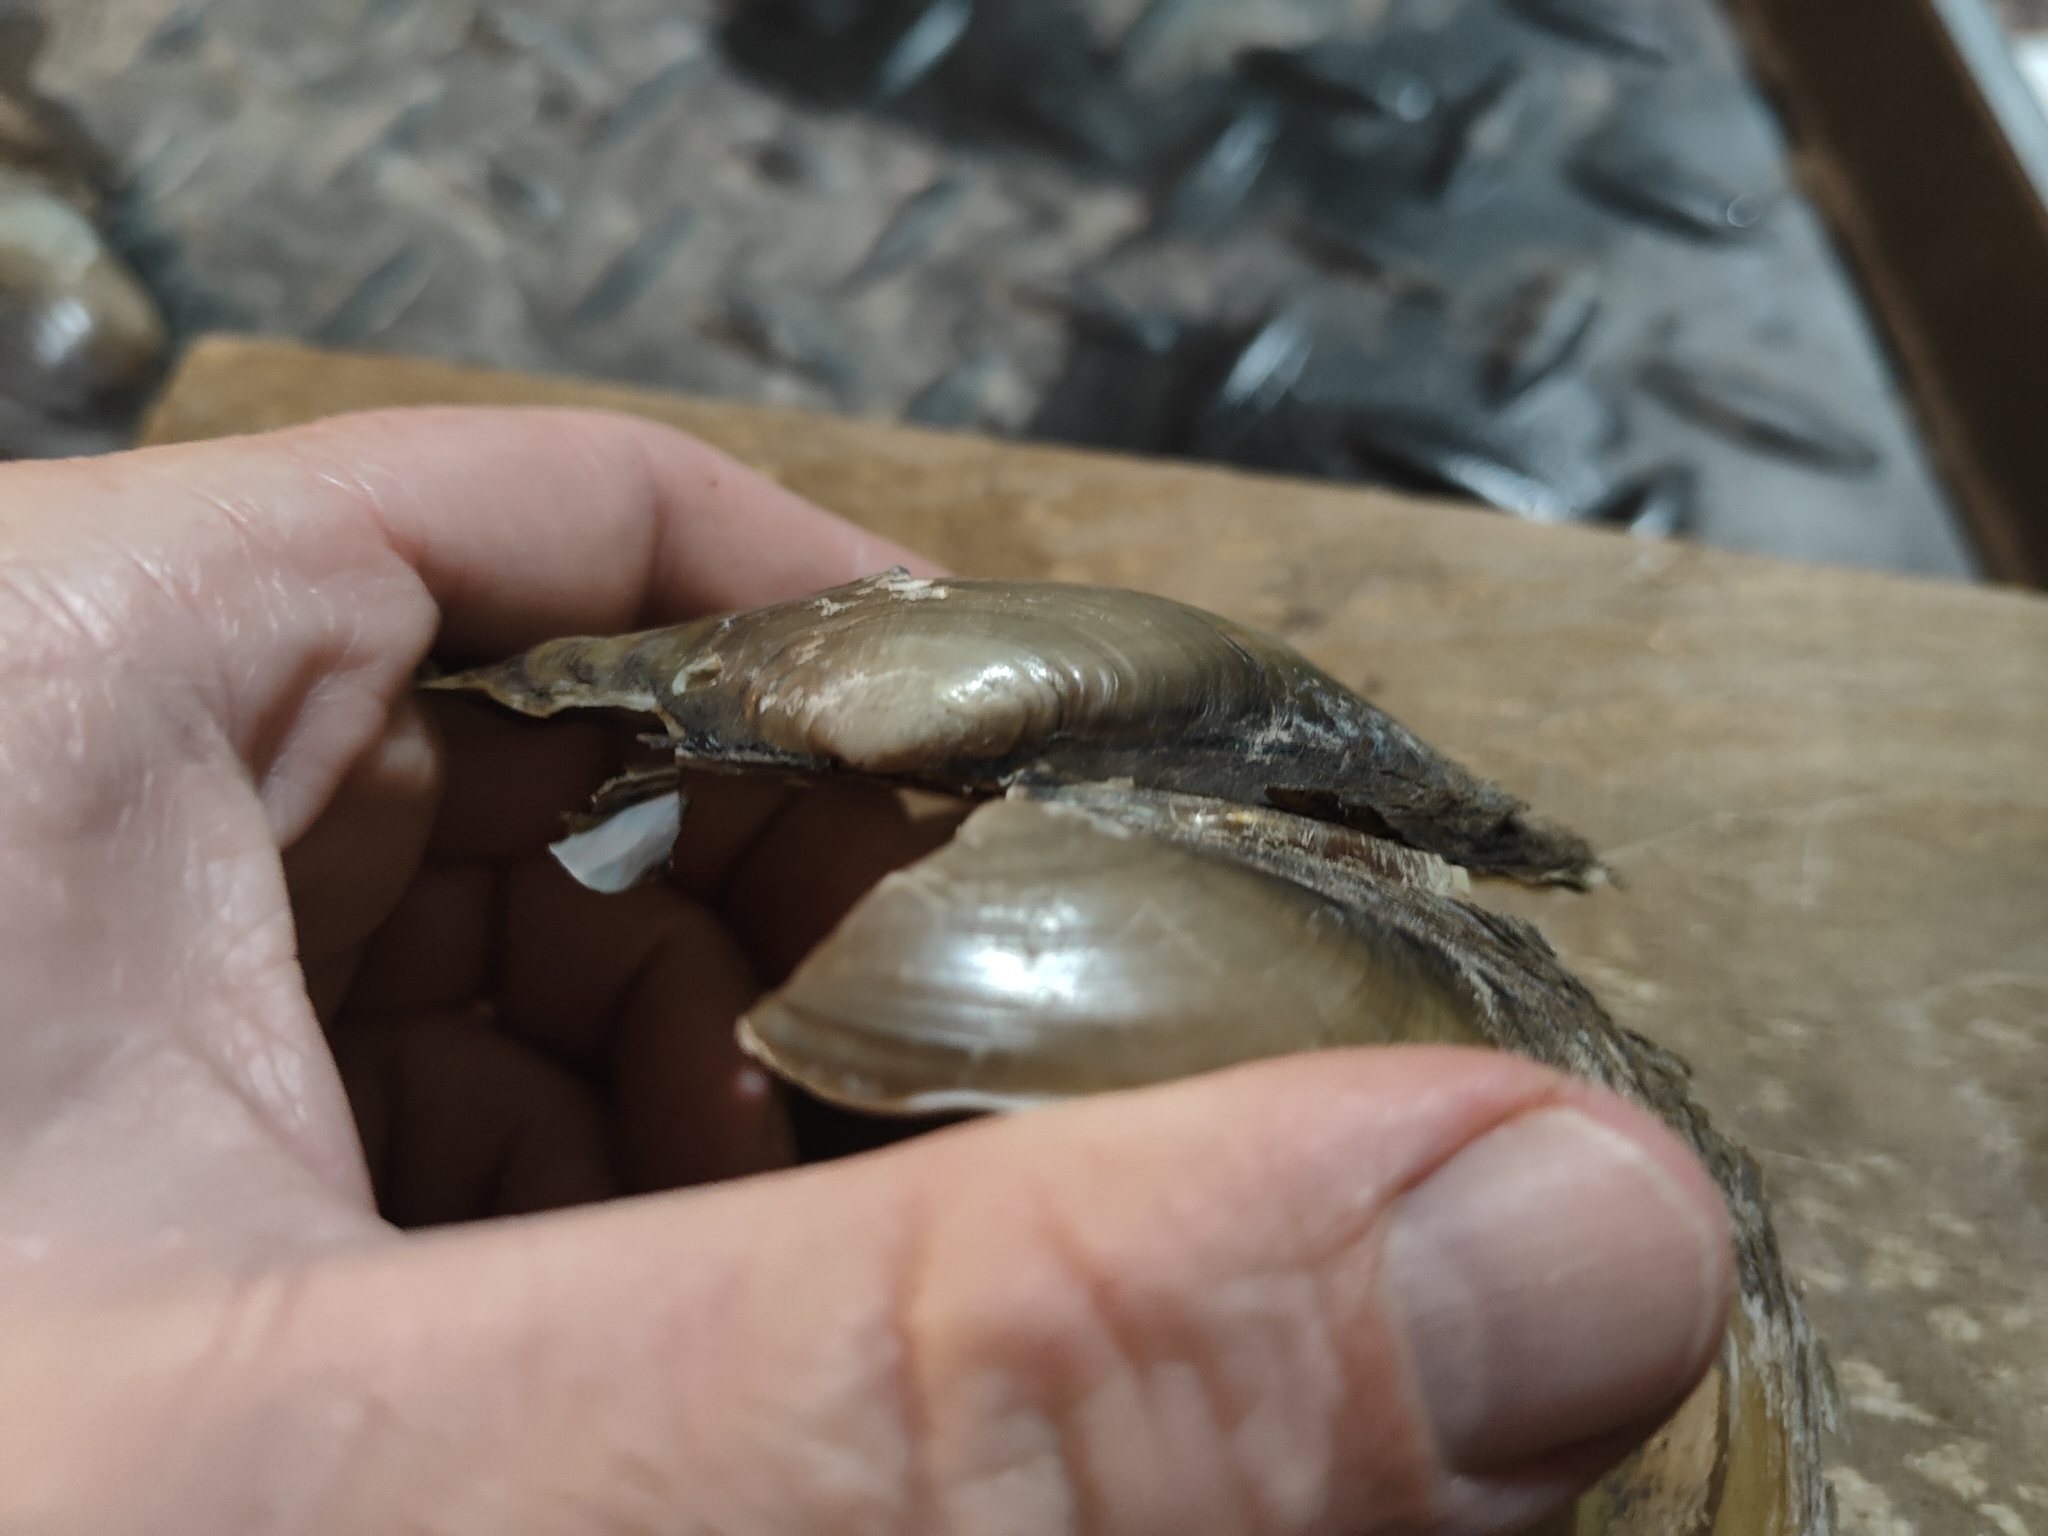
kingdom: Animalia
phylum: Mollusca
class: Bivalvia
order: Unionida
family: Unionidae
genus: Potamilus
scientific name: Potamilus fragilis
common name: Fragile papershell
